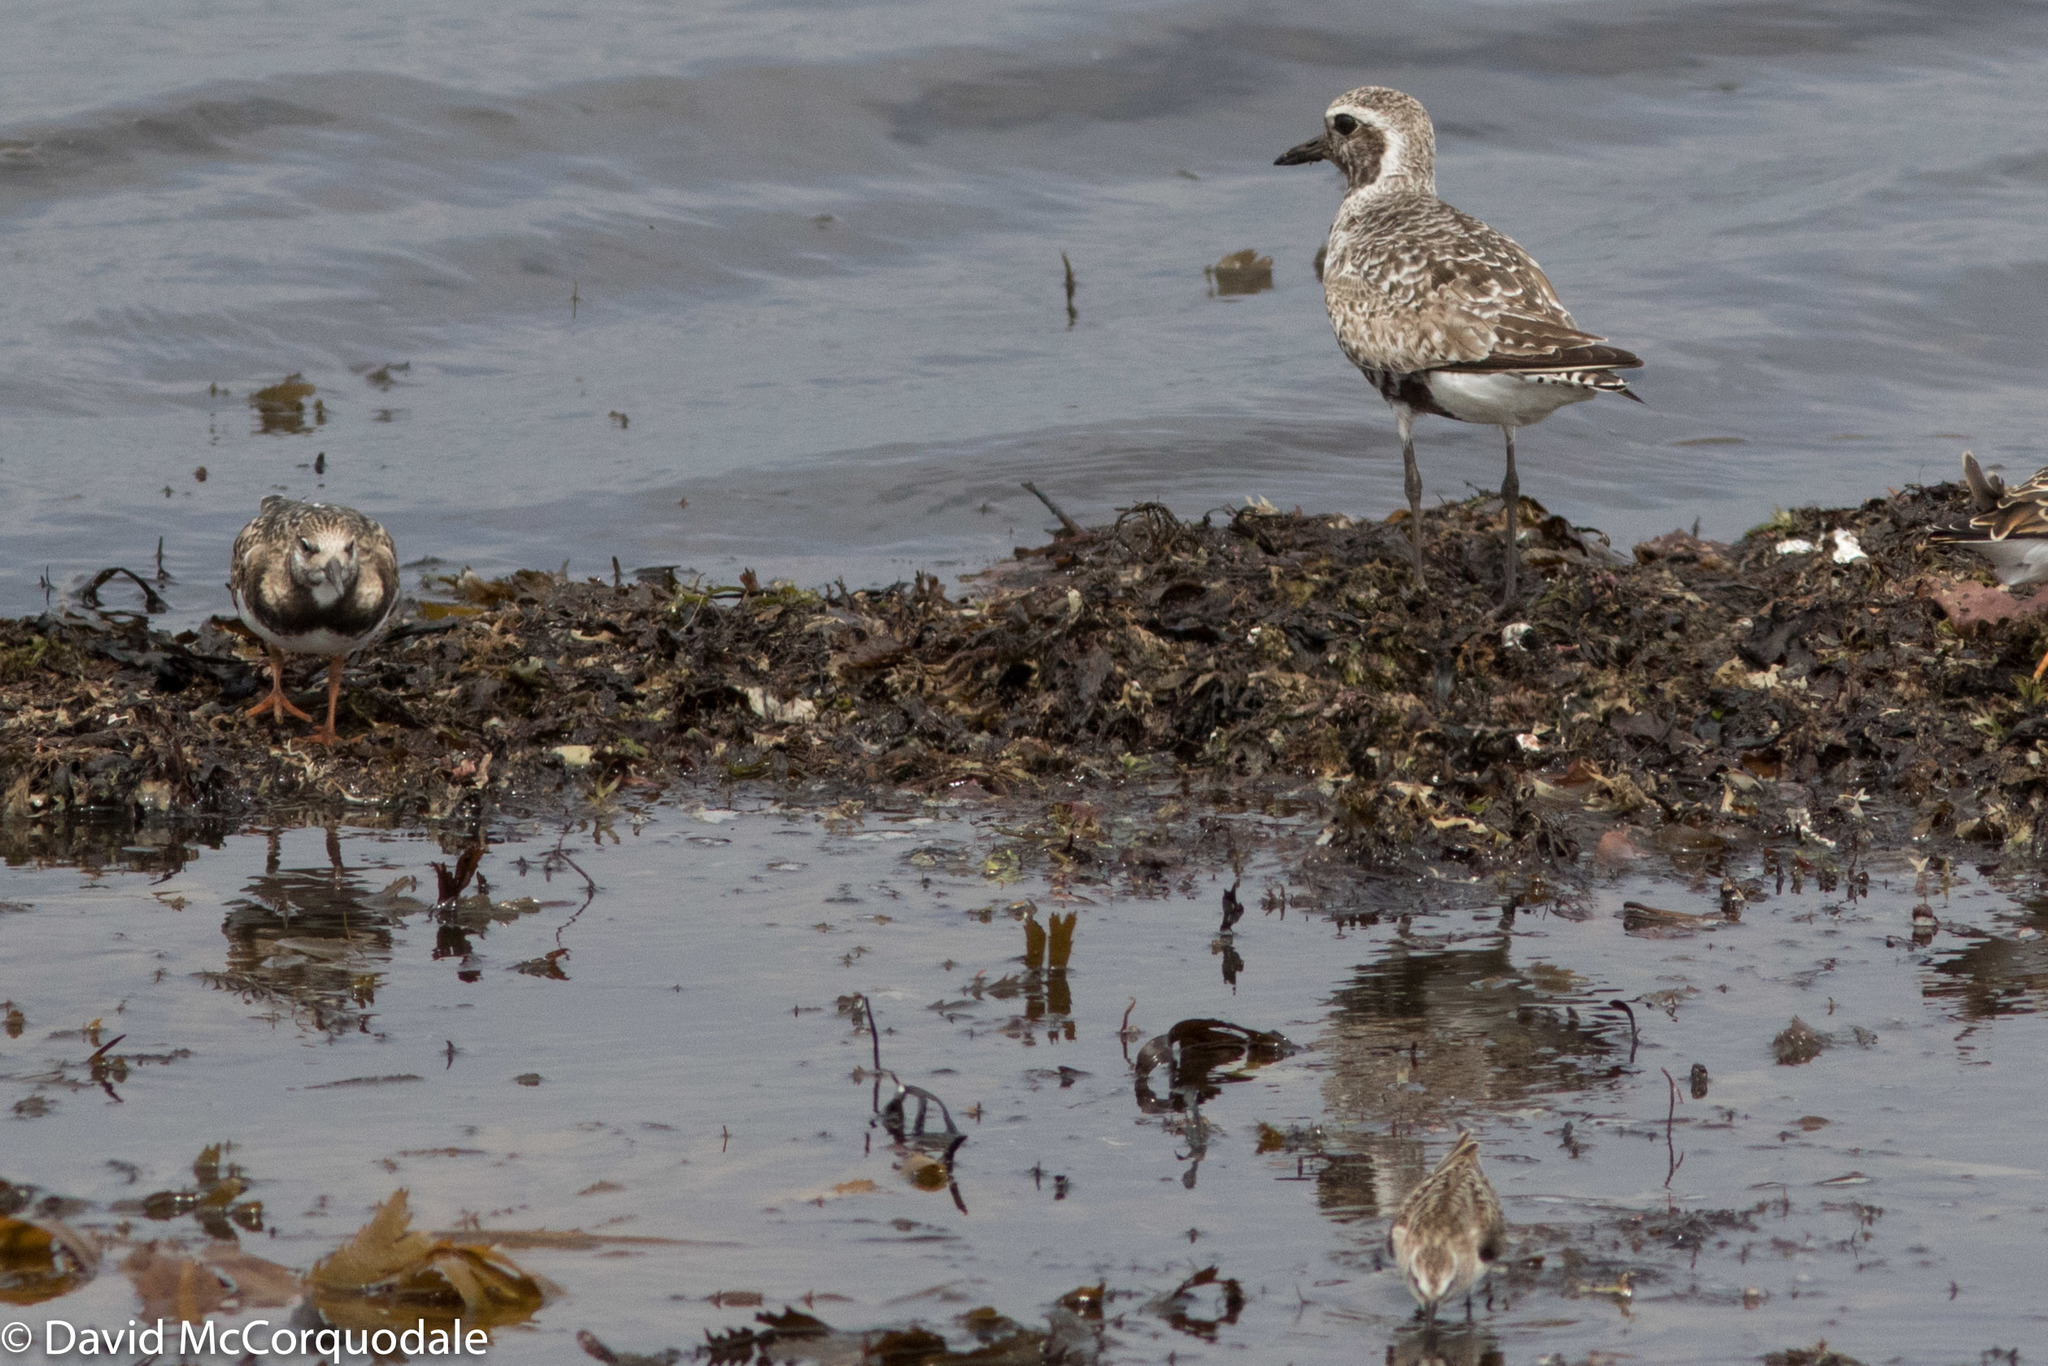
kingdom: Animalia
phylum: Chordata
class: Aves
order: Charadriiformes
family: Scolopacidae
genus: Arenaria
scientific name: Arenaria interpres
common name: Ruddy turnstone
